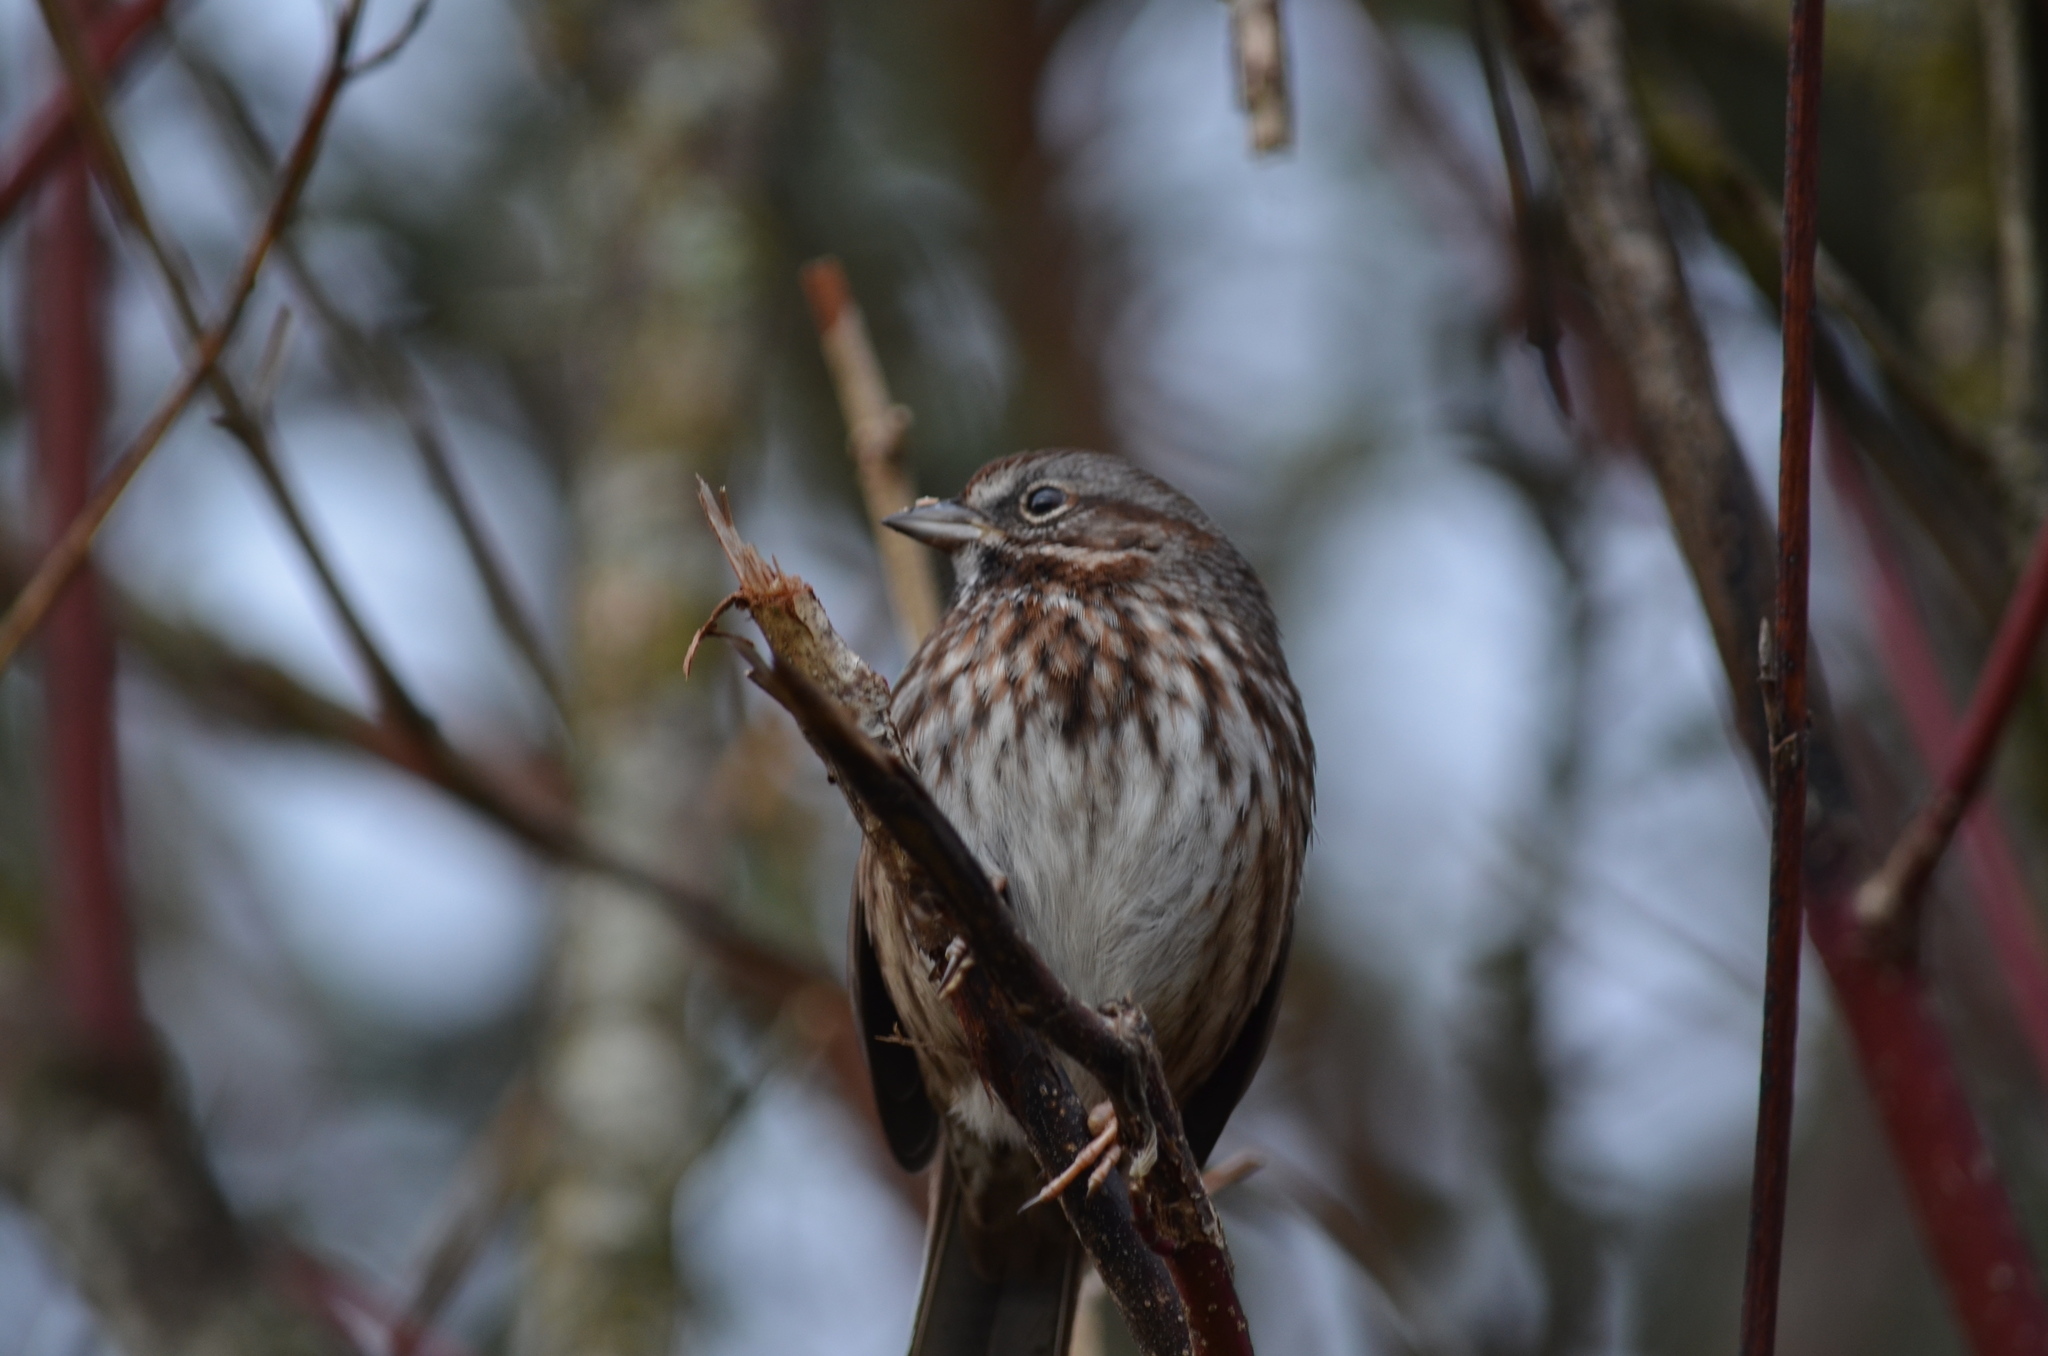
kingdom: Animalia
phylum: Chordata
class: Aves
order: Passeriformes
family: Passerellidae
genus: Melospiza
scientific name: Melospiza melodia
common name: Song sparrow
